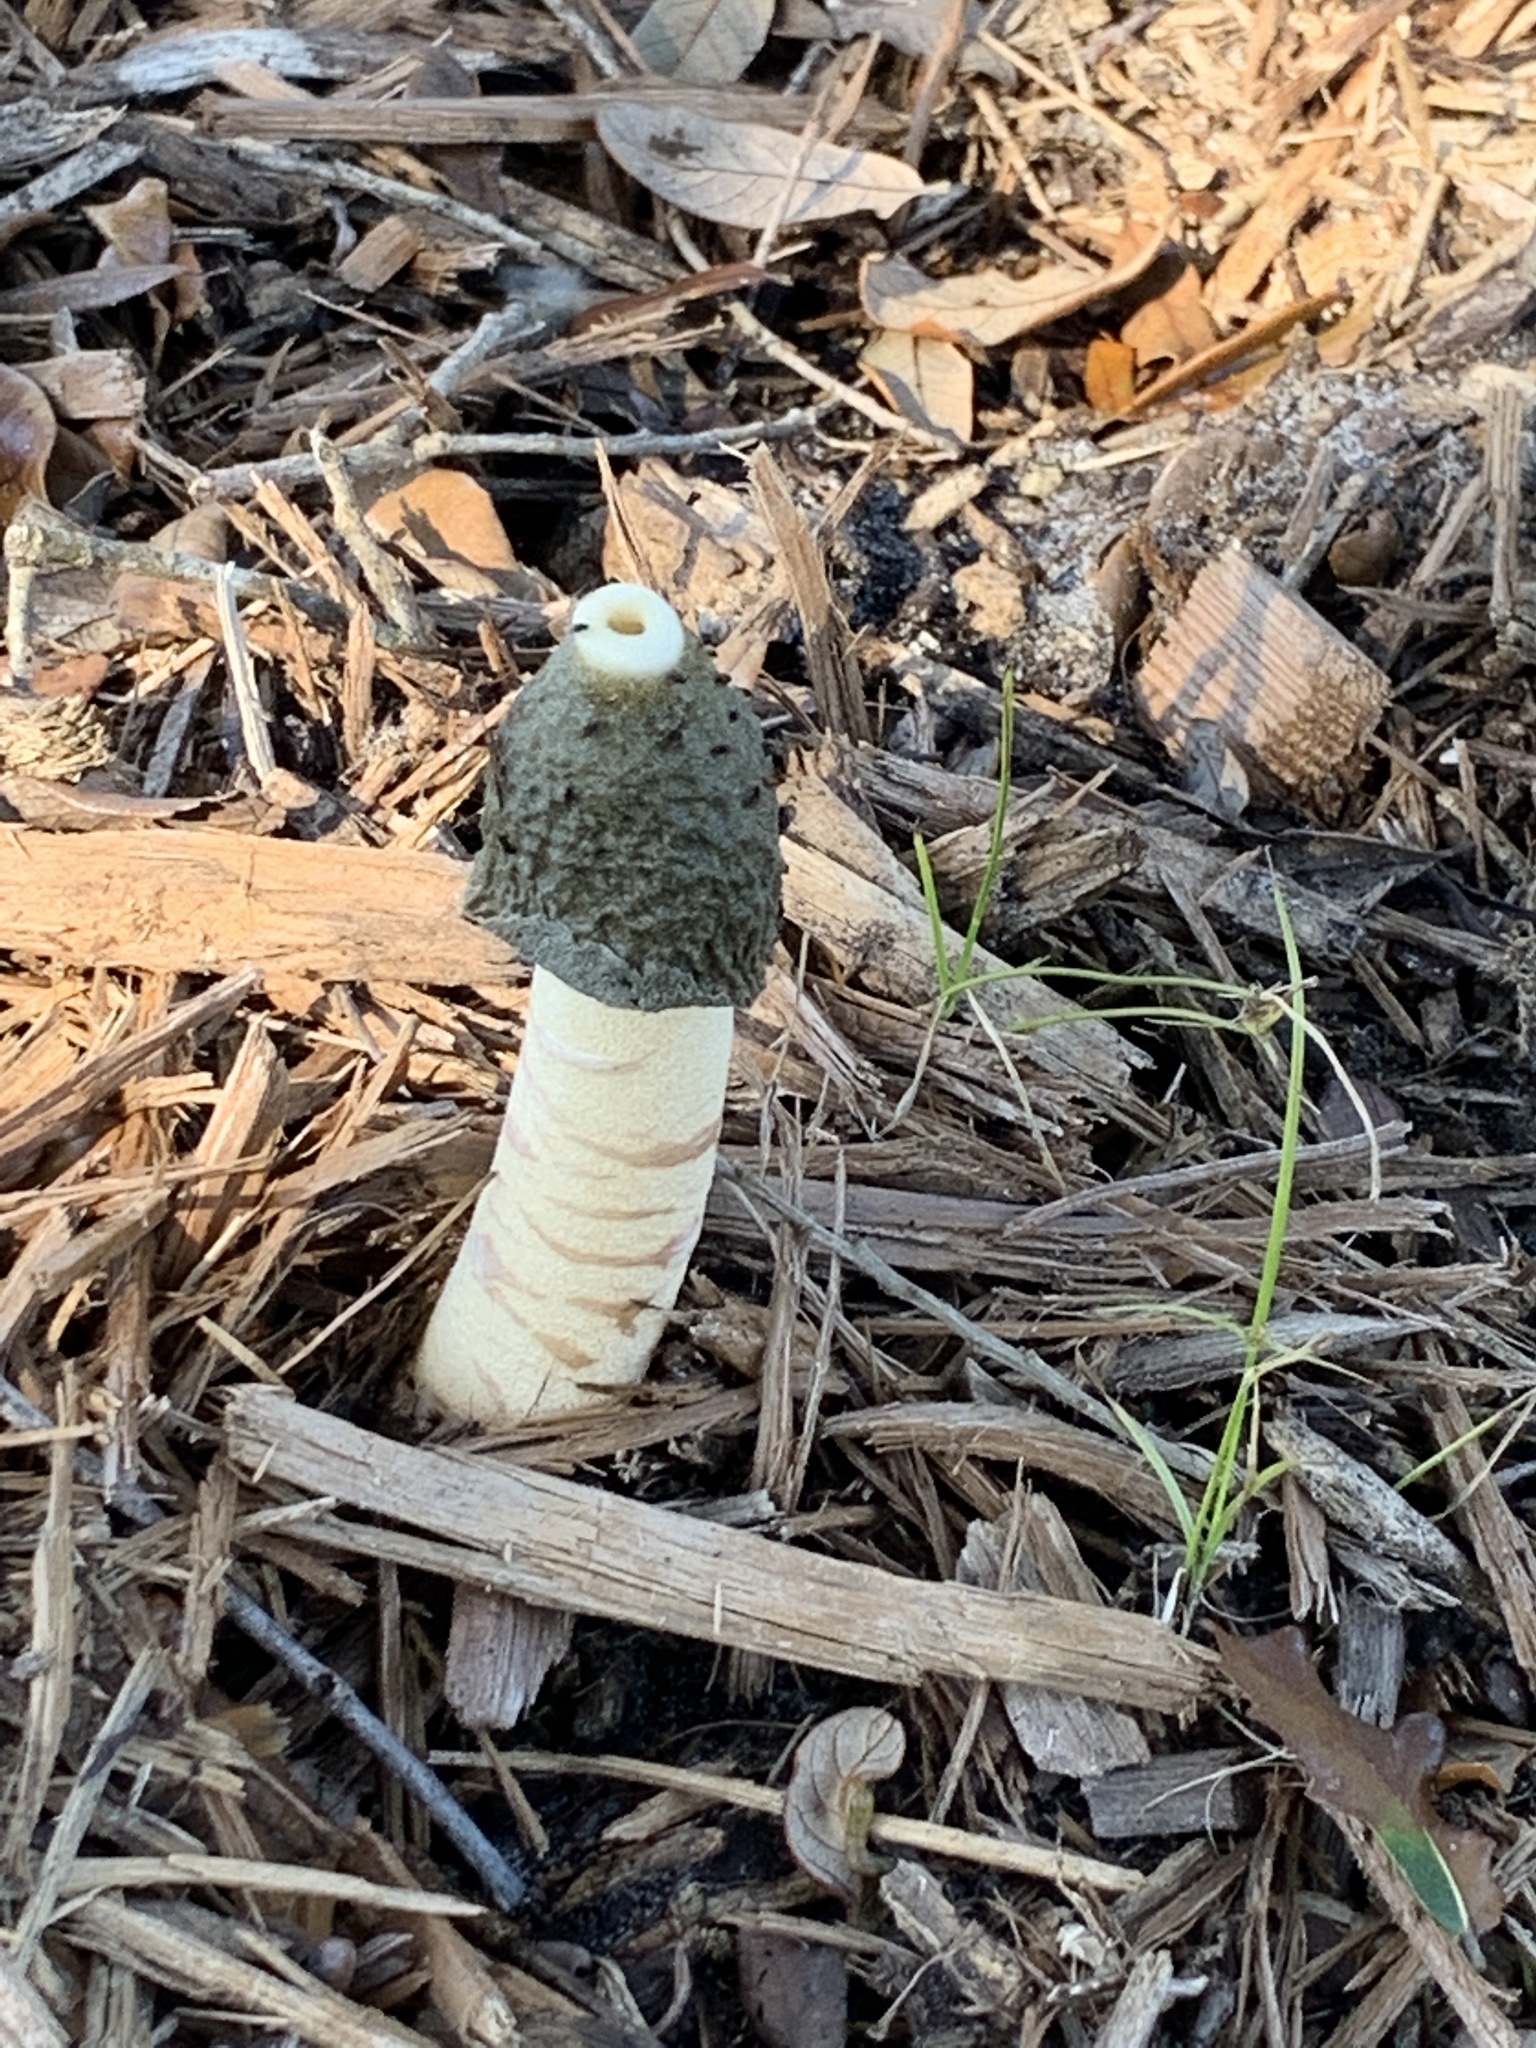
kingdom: Fungi
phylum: Basidiomycota
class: Agaricomycetes
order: Phallales
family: Phallaceae
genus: Phallus
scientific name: Phallus ravenelii
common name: Ravenel's stinkhorn
